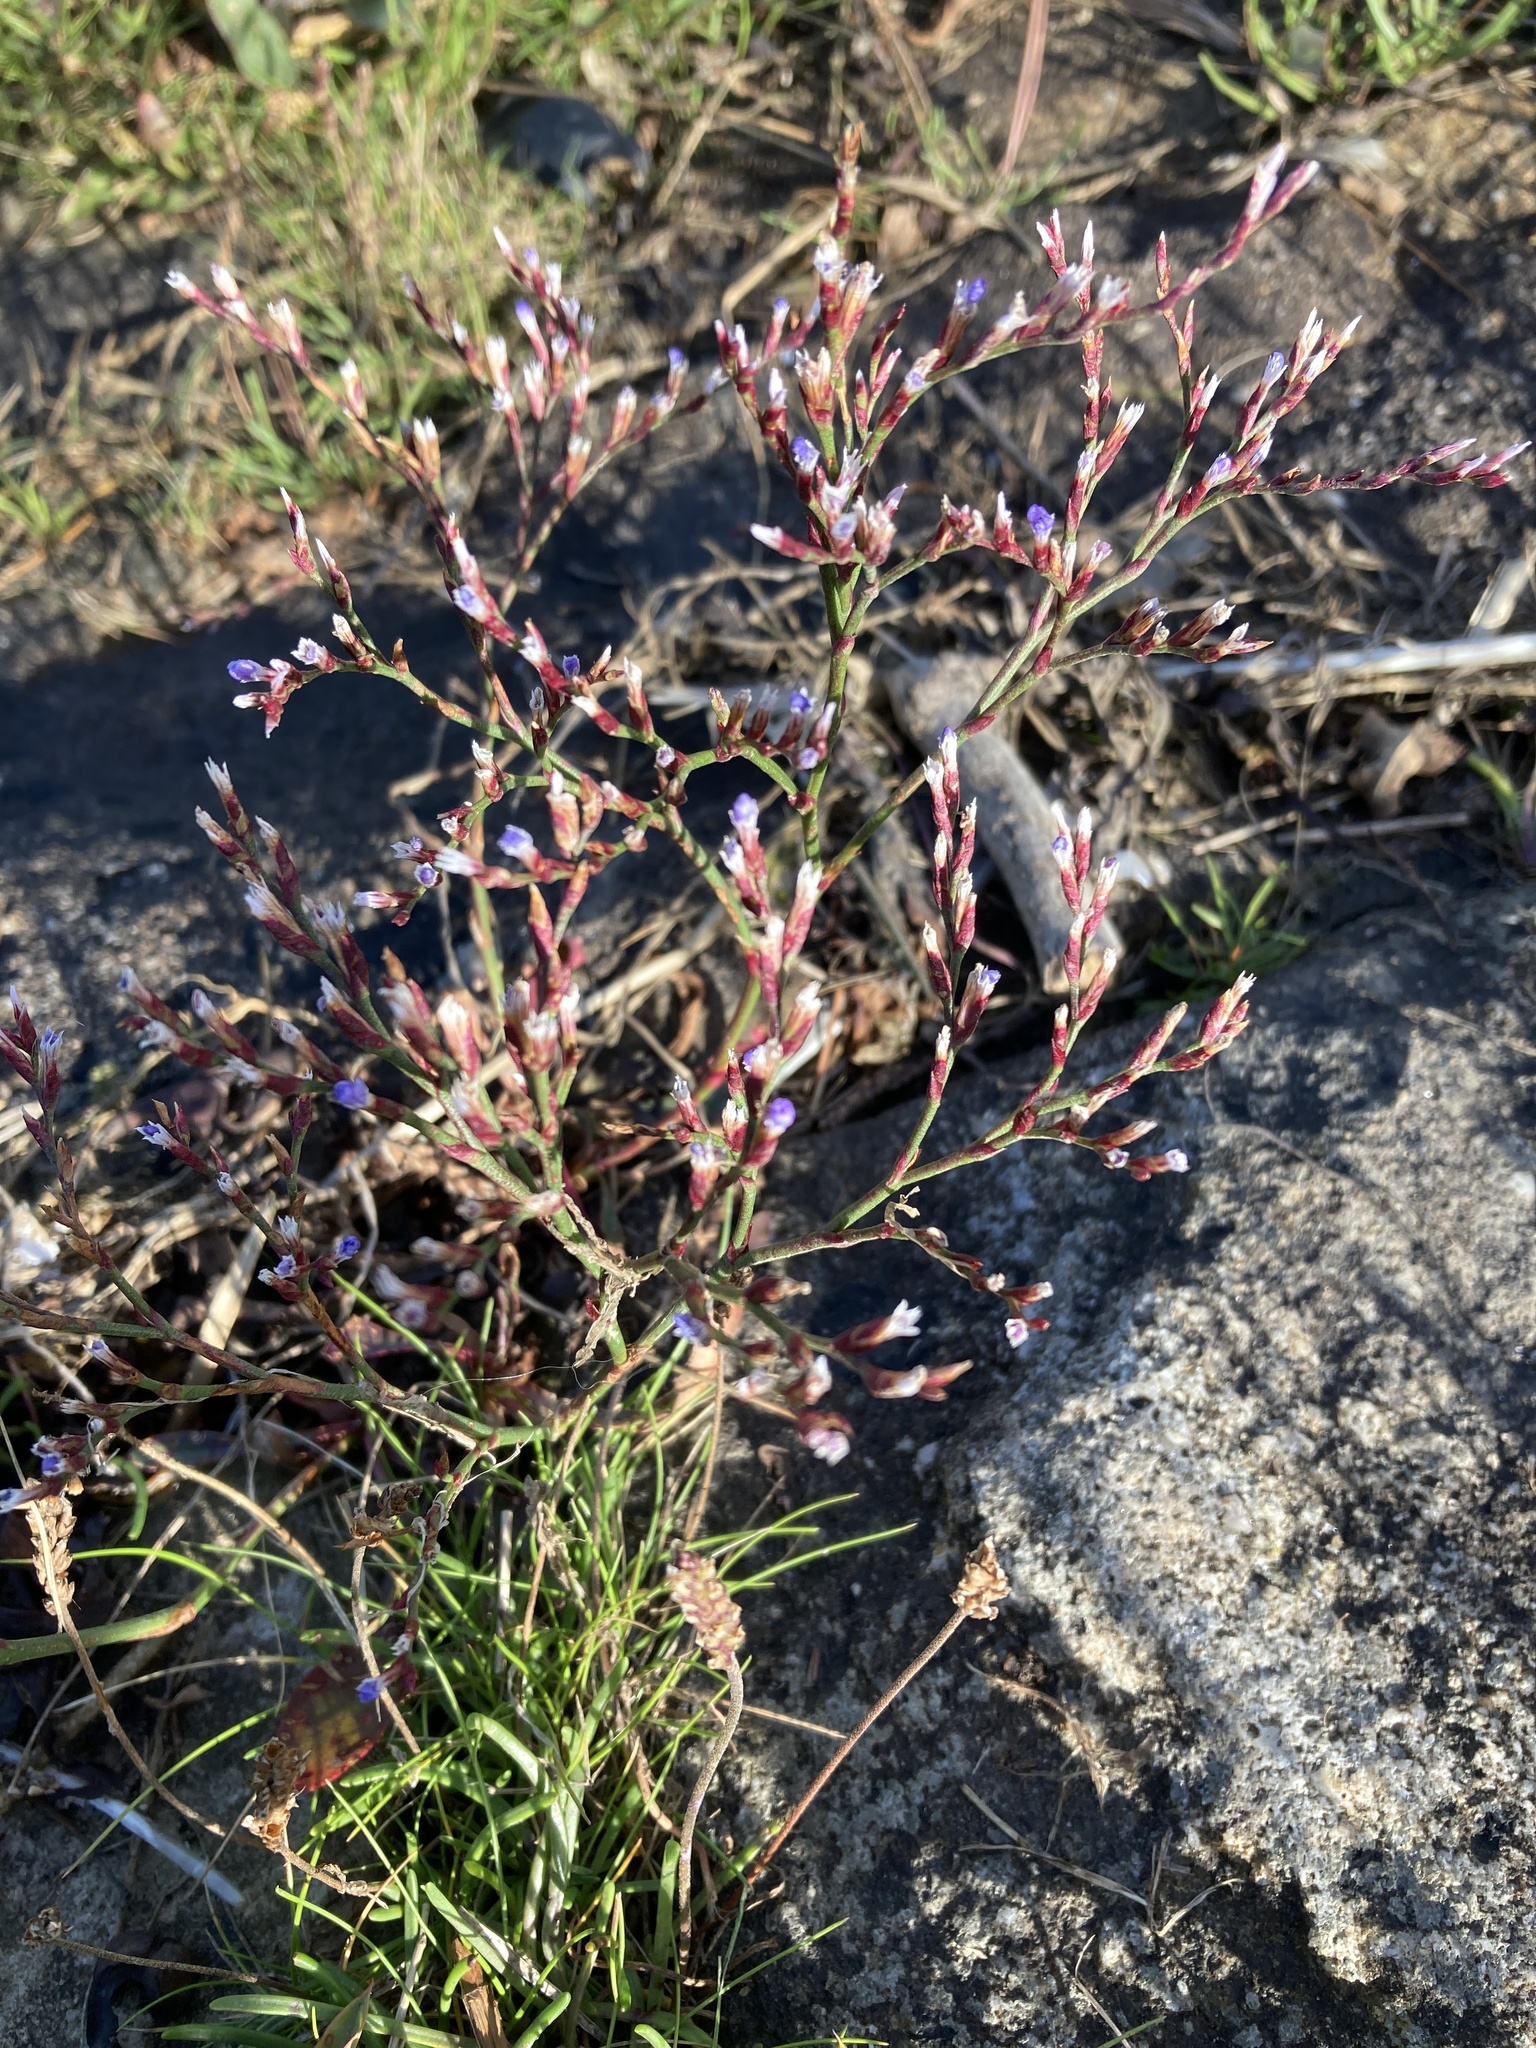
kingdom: Plantae
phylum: Tracheophyta
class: Magnoliopsida
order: Caryophyllales
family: Plumbaginaceae
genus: Limonium
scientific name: Limonium humile
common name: Lax-flowered sea-lavender
